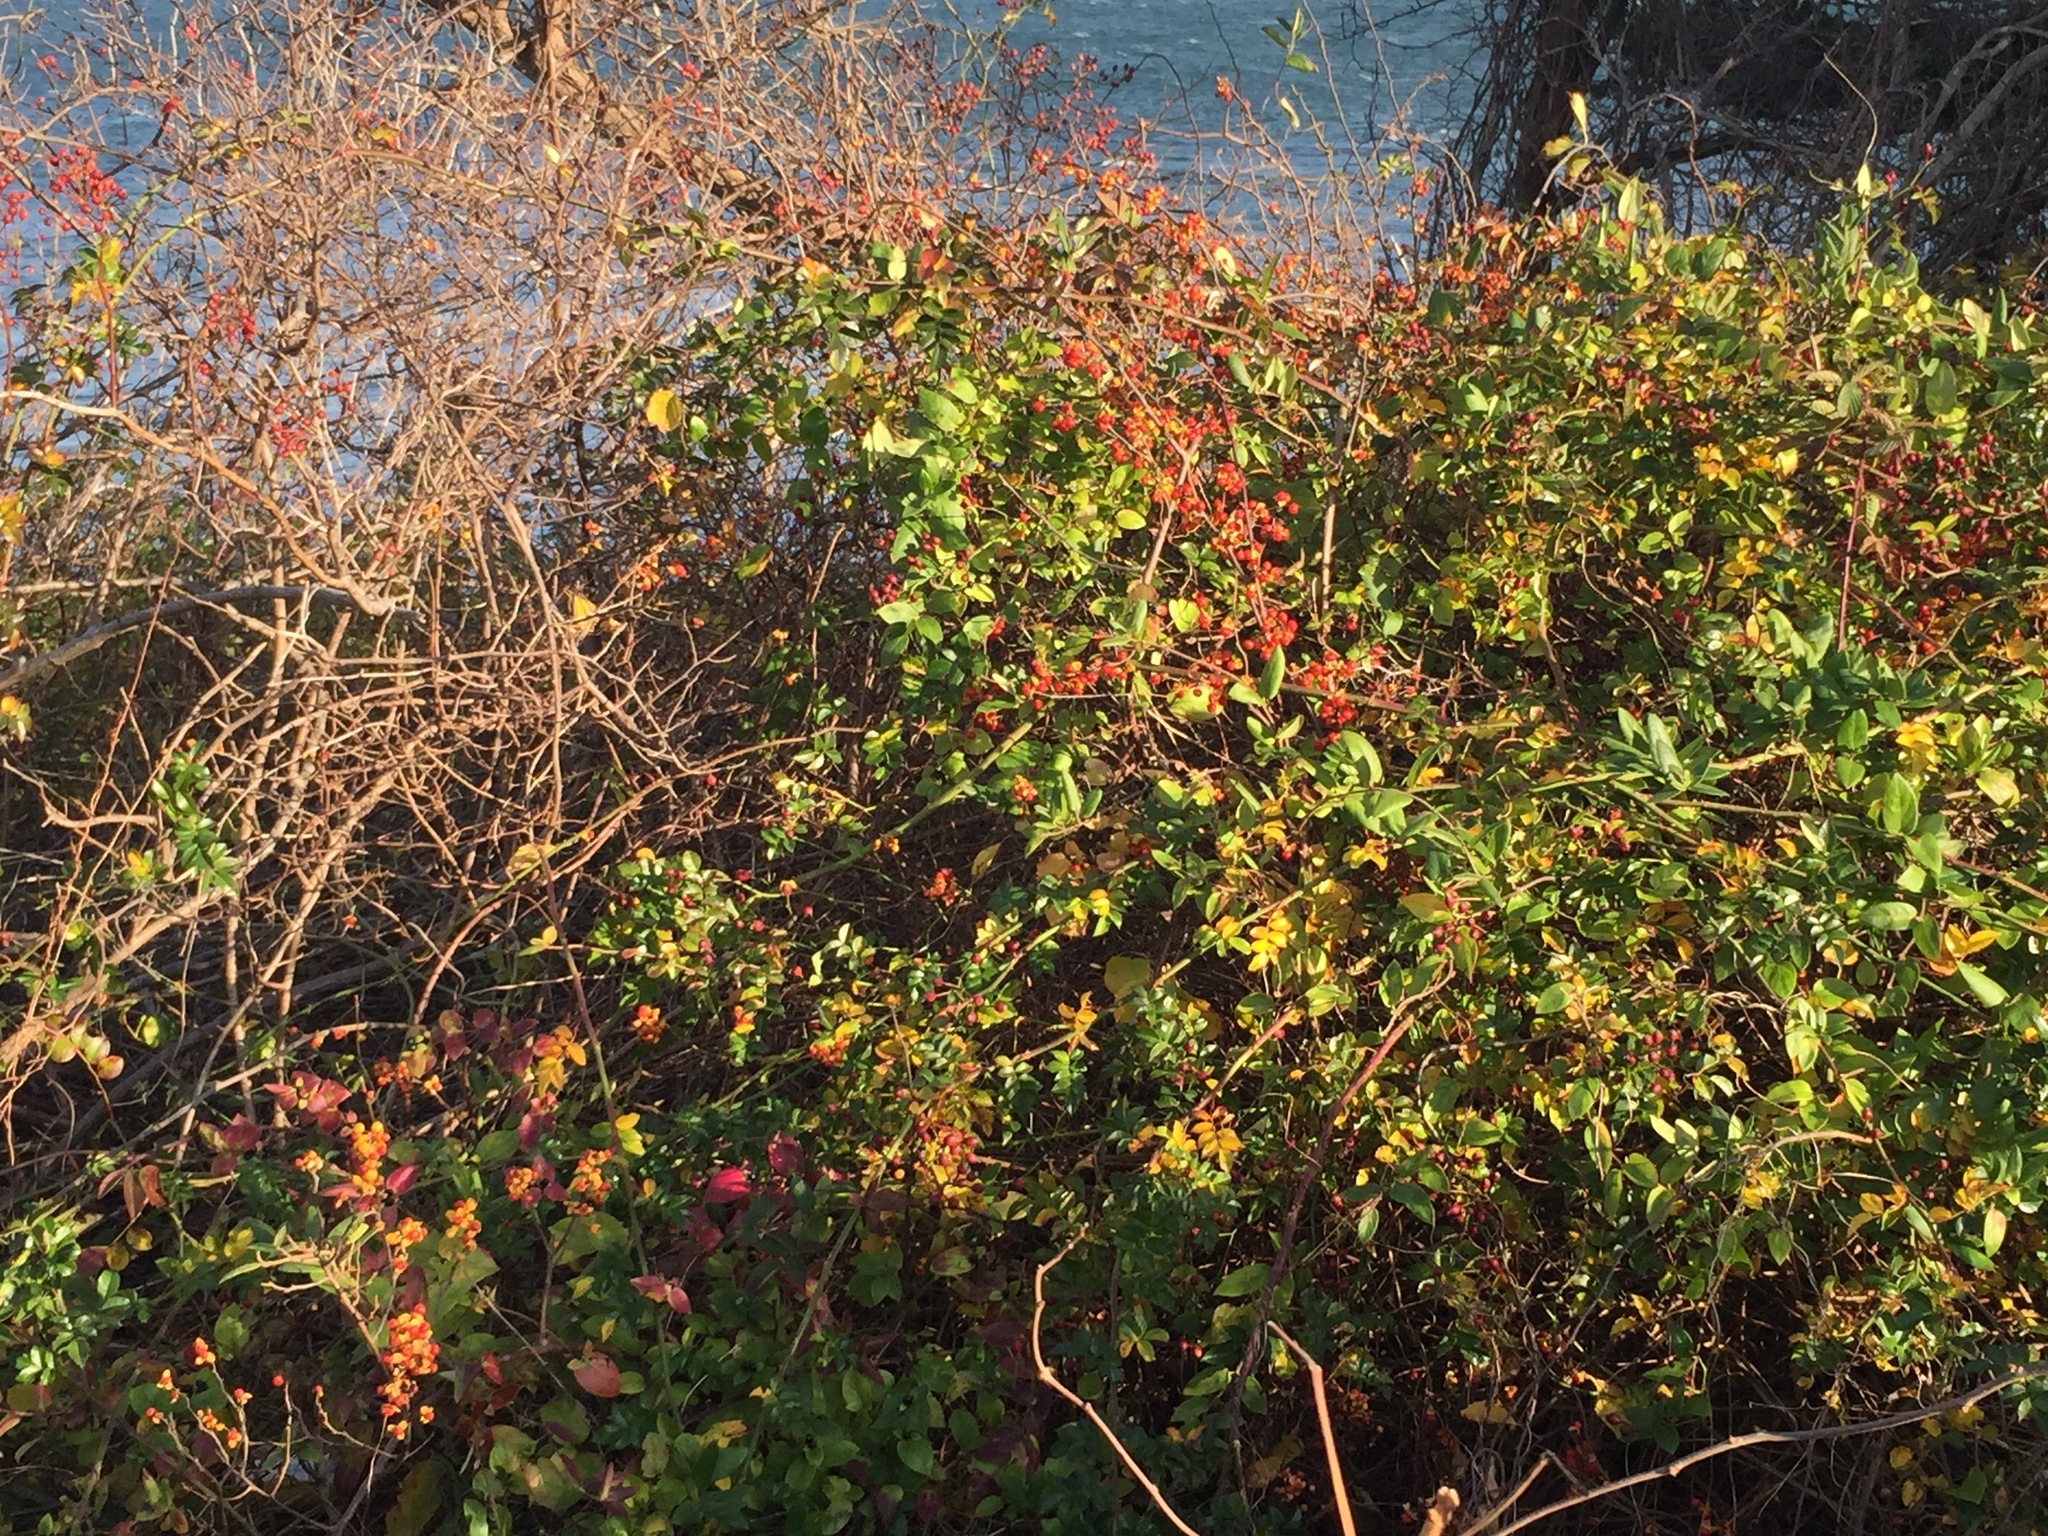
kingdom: Plantae
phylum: Tracheophyta
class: Magnoliopsida
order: Celastrales
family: Celastraceae
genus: Celastrus
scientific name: Celastrus orbiculatus
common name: Oriental bittersweet
